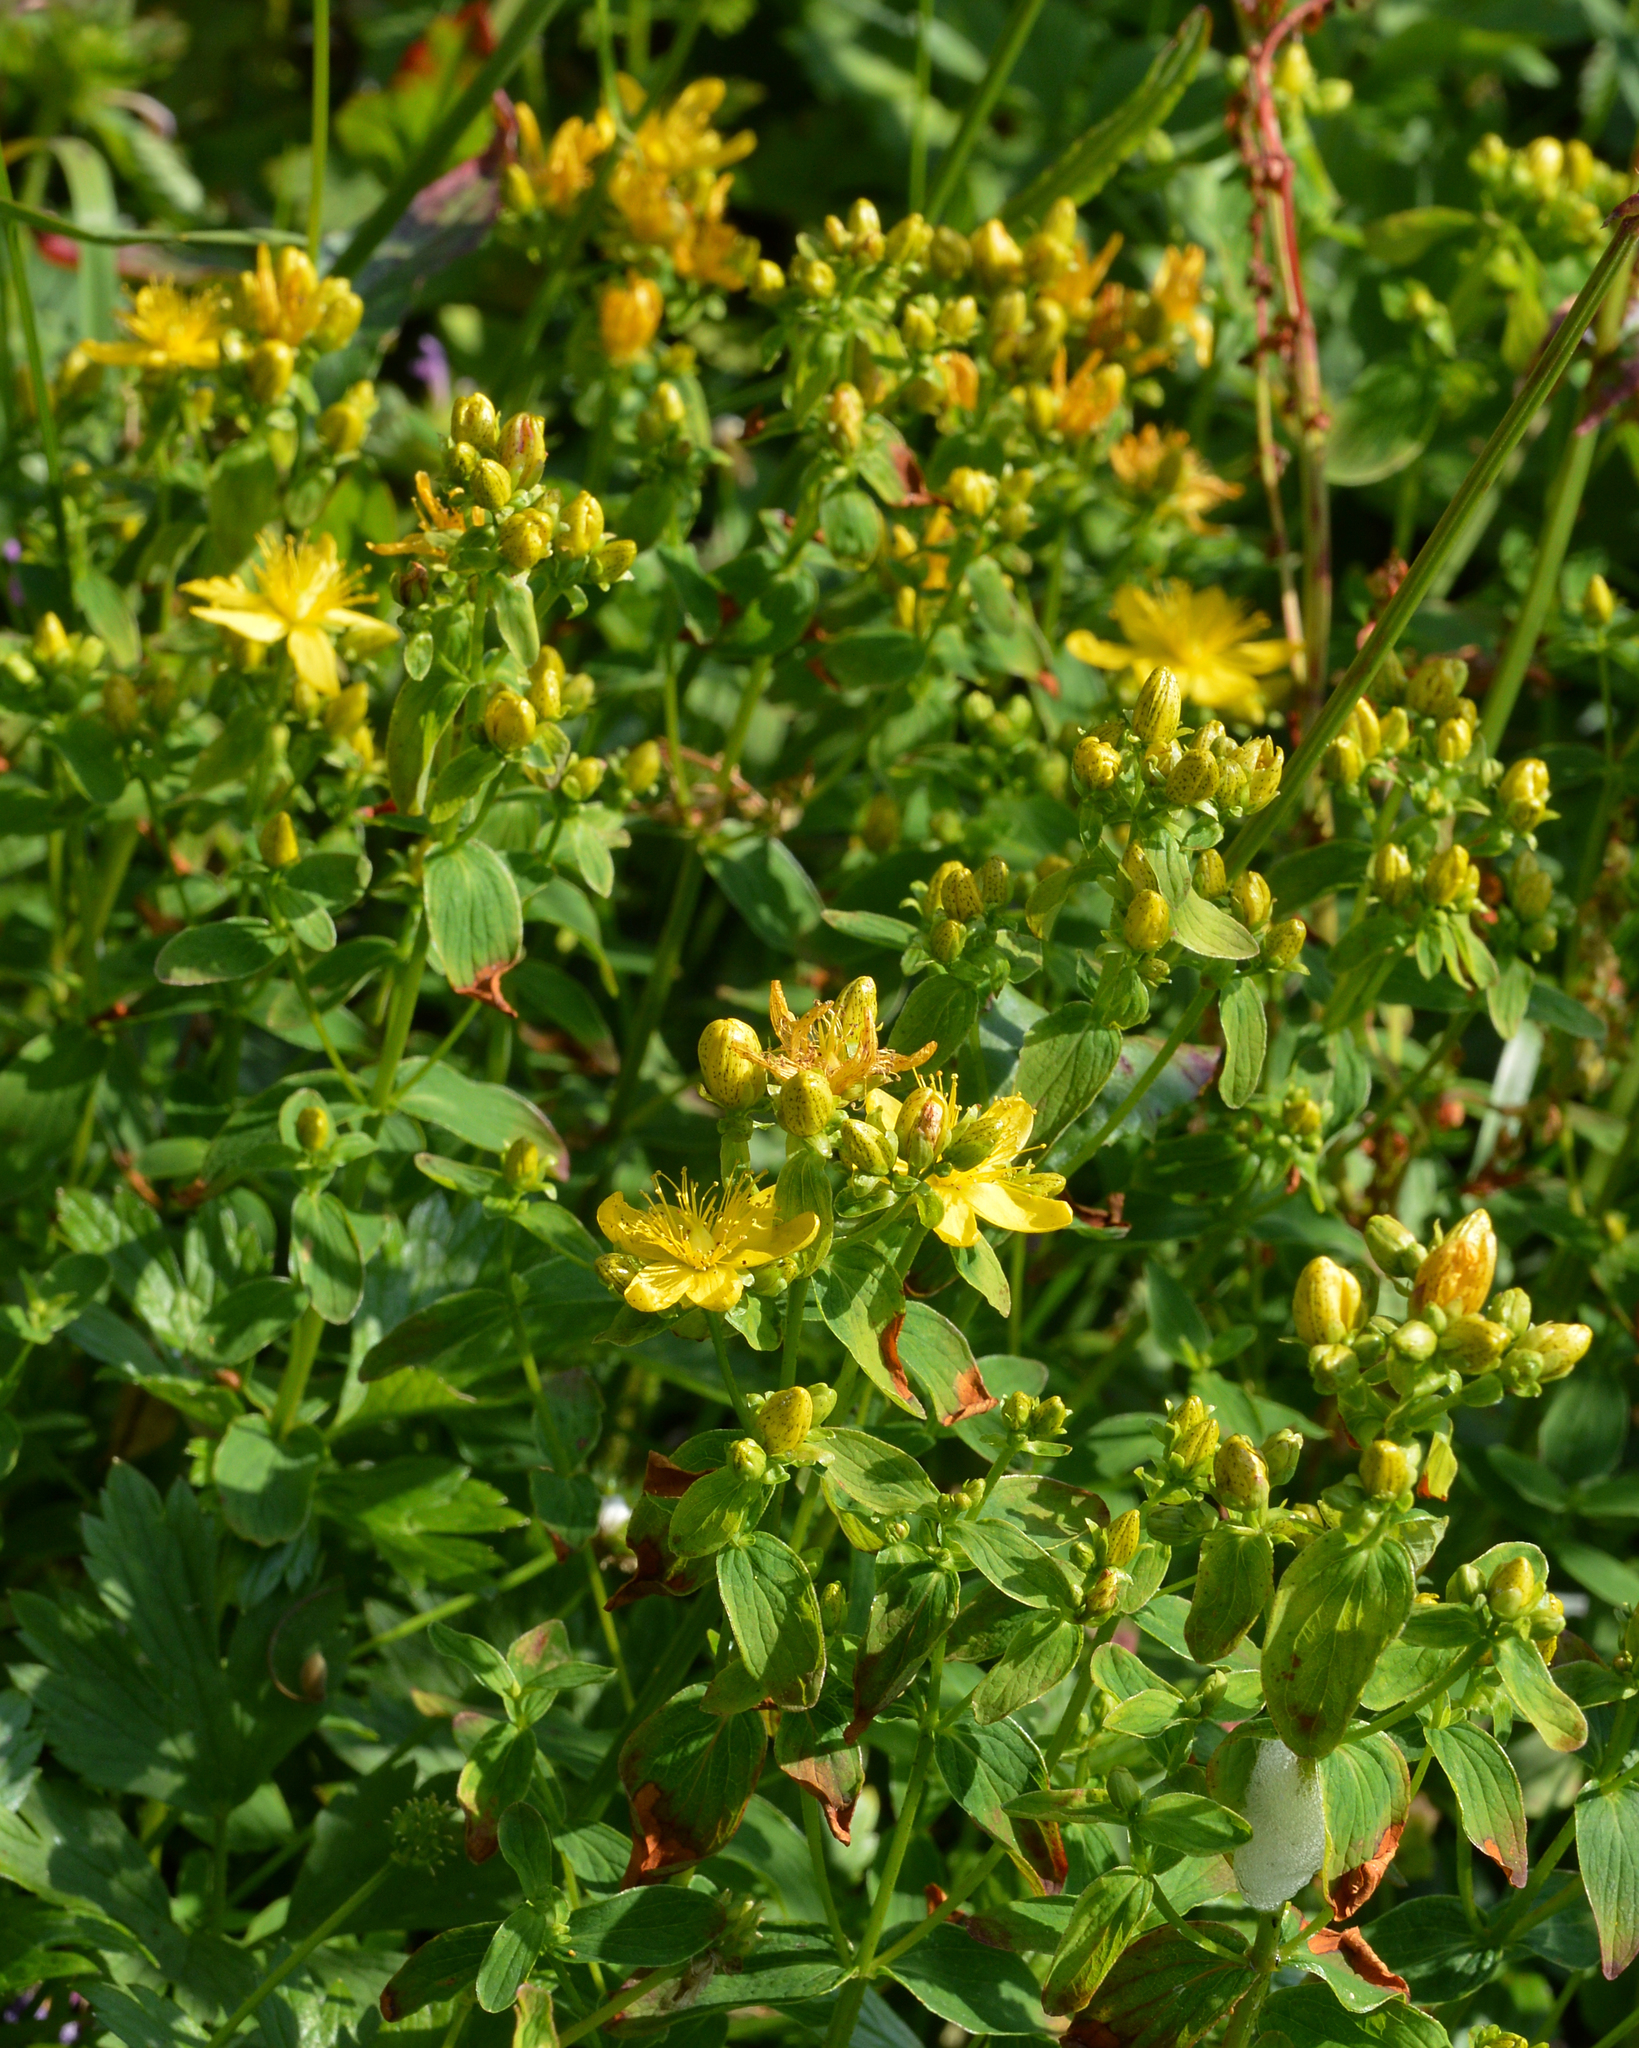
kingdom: Plantae
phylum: Tracheophyta
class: Magnoliopsida
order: Malpighiales
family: Hypericaceae
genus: Hypericum
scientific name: Hypericum maculatum
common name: Imperforate st. john's-wort
